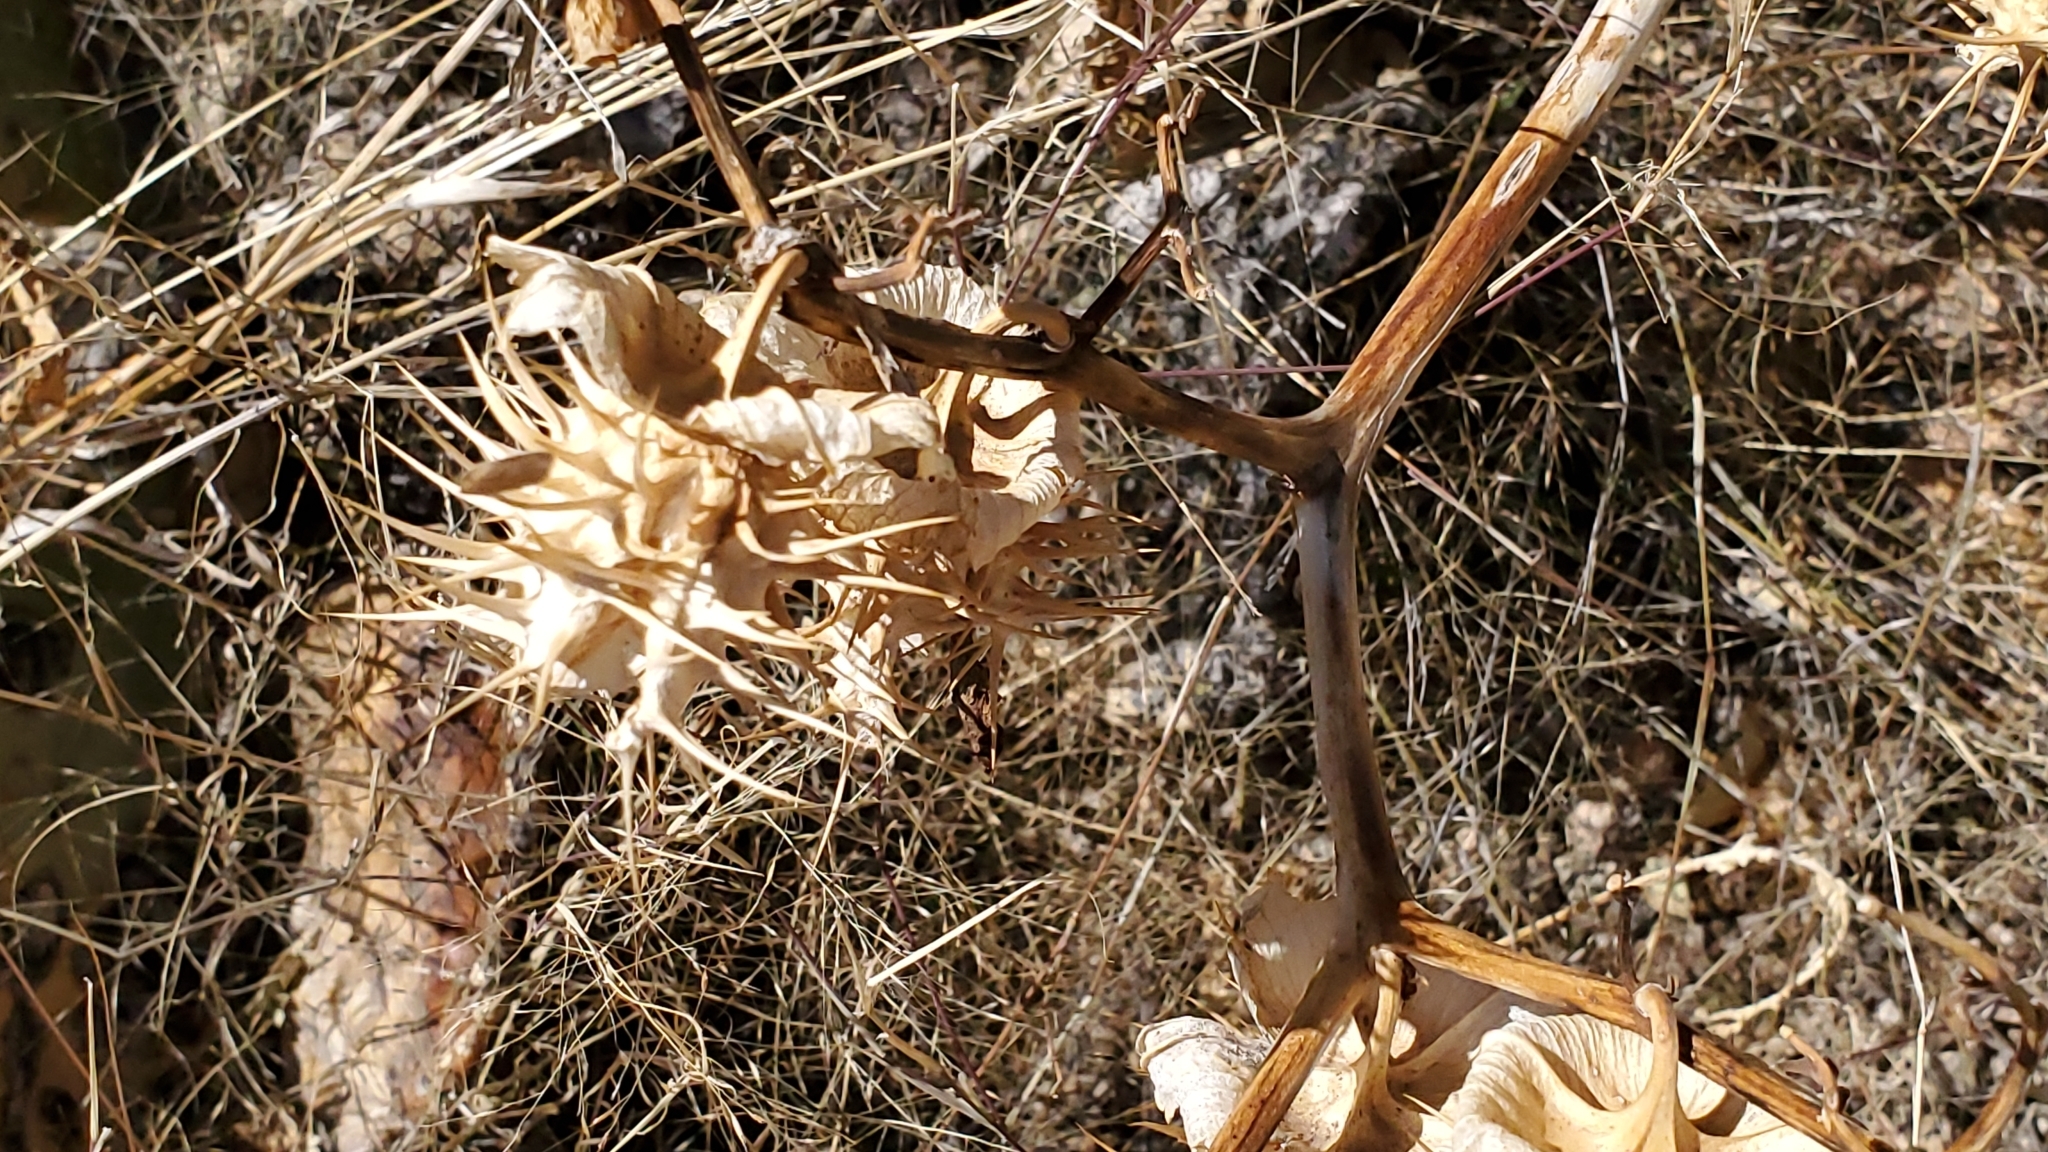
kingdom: Plantae
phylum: Tracheophyta
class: Magnoliopsida
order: Solanales
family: Solanaceae
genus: Datura
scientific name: Datura wrightii
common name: Sacred thorn-apple
